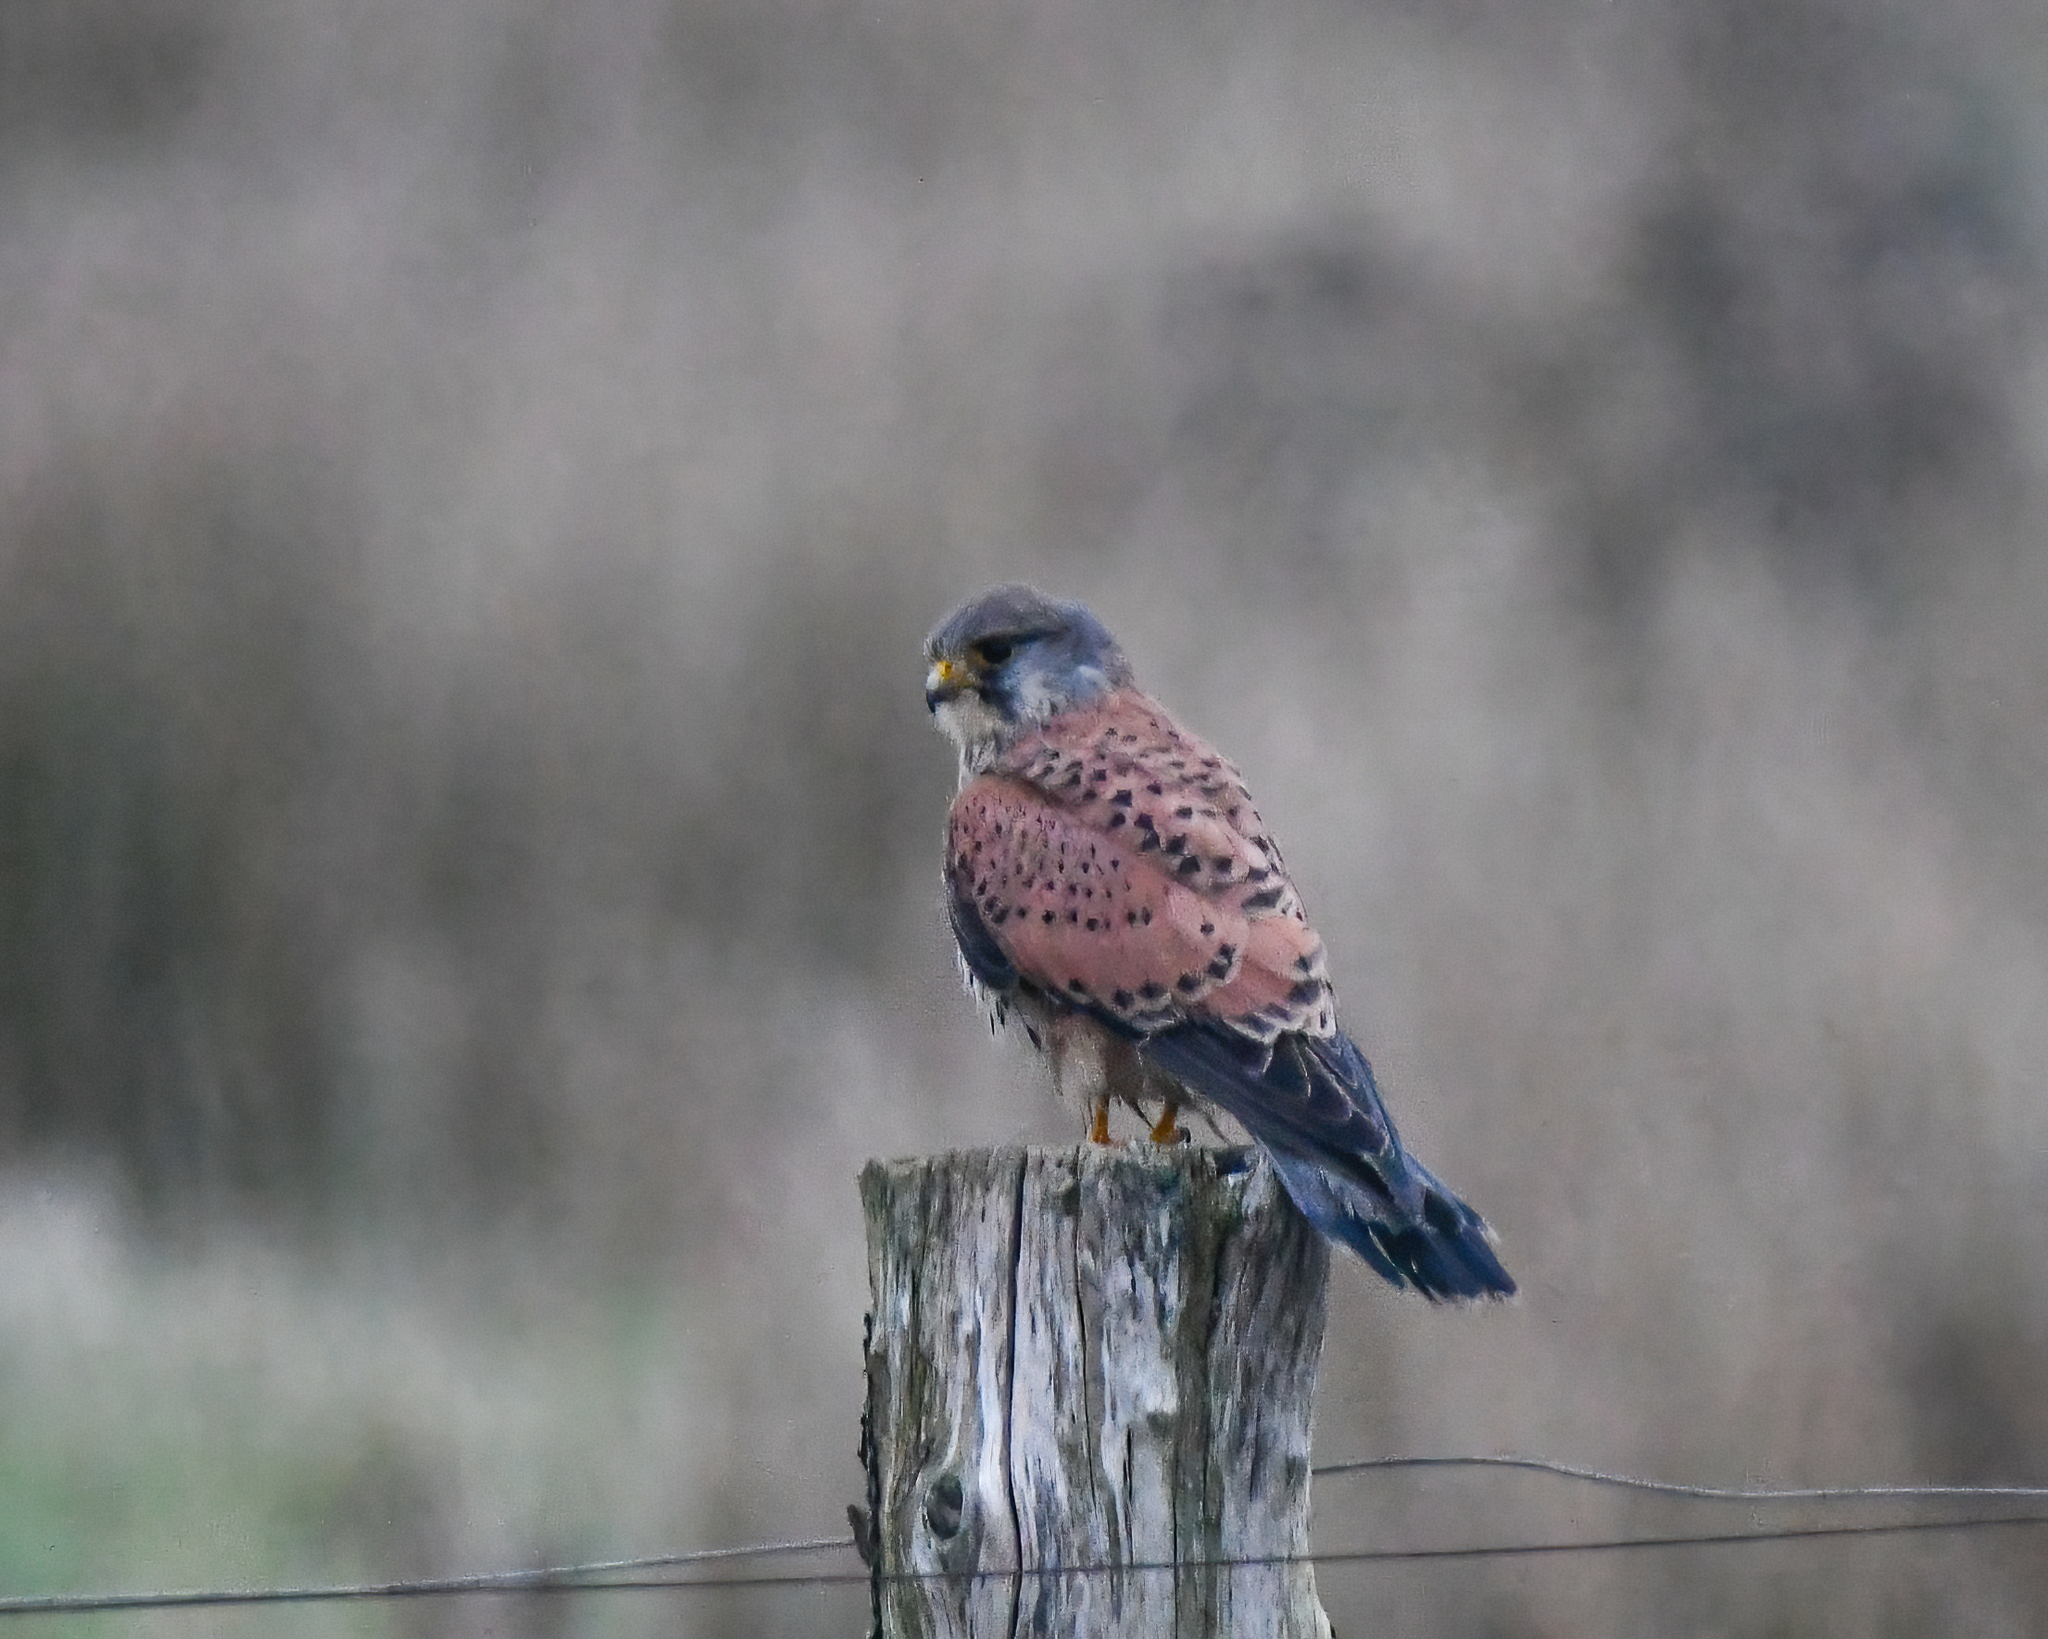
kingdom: Animalia
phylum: Chordata
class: Aves
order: Falconiformes
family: Falconidae
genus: Falco
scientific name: Falco tinnunculus
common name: Common kestrel
